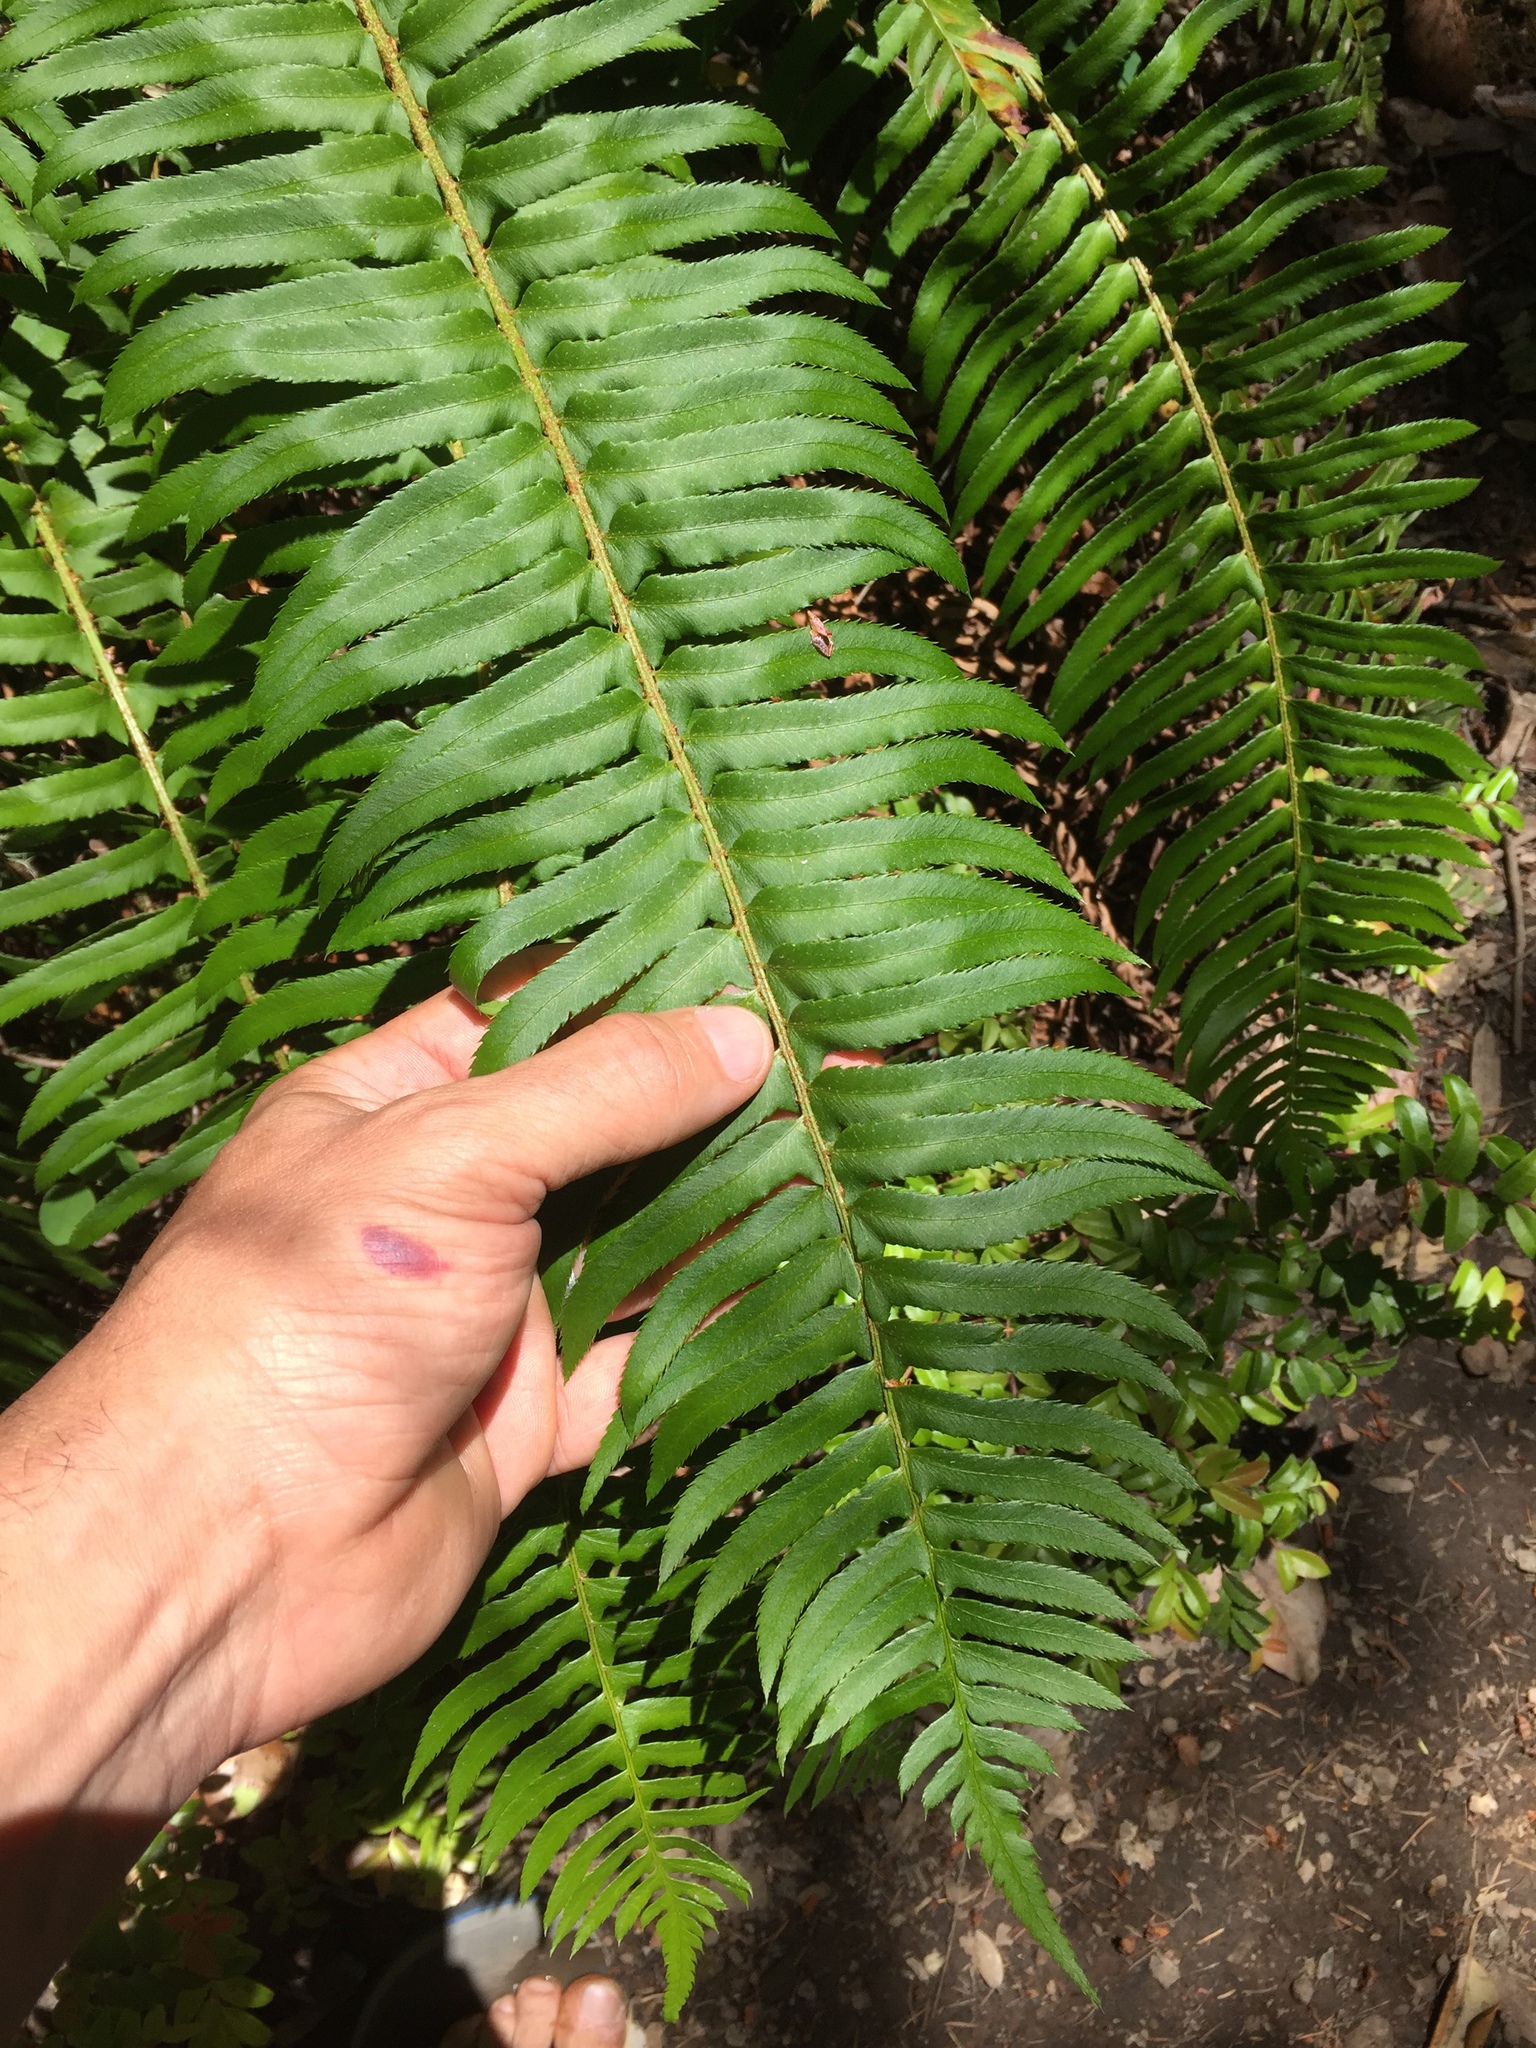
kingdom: Plantae
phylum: Tracheophyta
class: Polypodiopsida
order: Polypodiales
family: Dryopteridaceae
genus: Polystichum
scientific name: Polystichum munitum
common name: Western sword-fern
